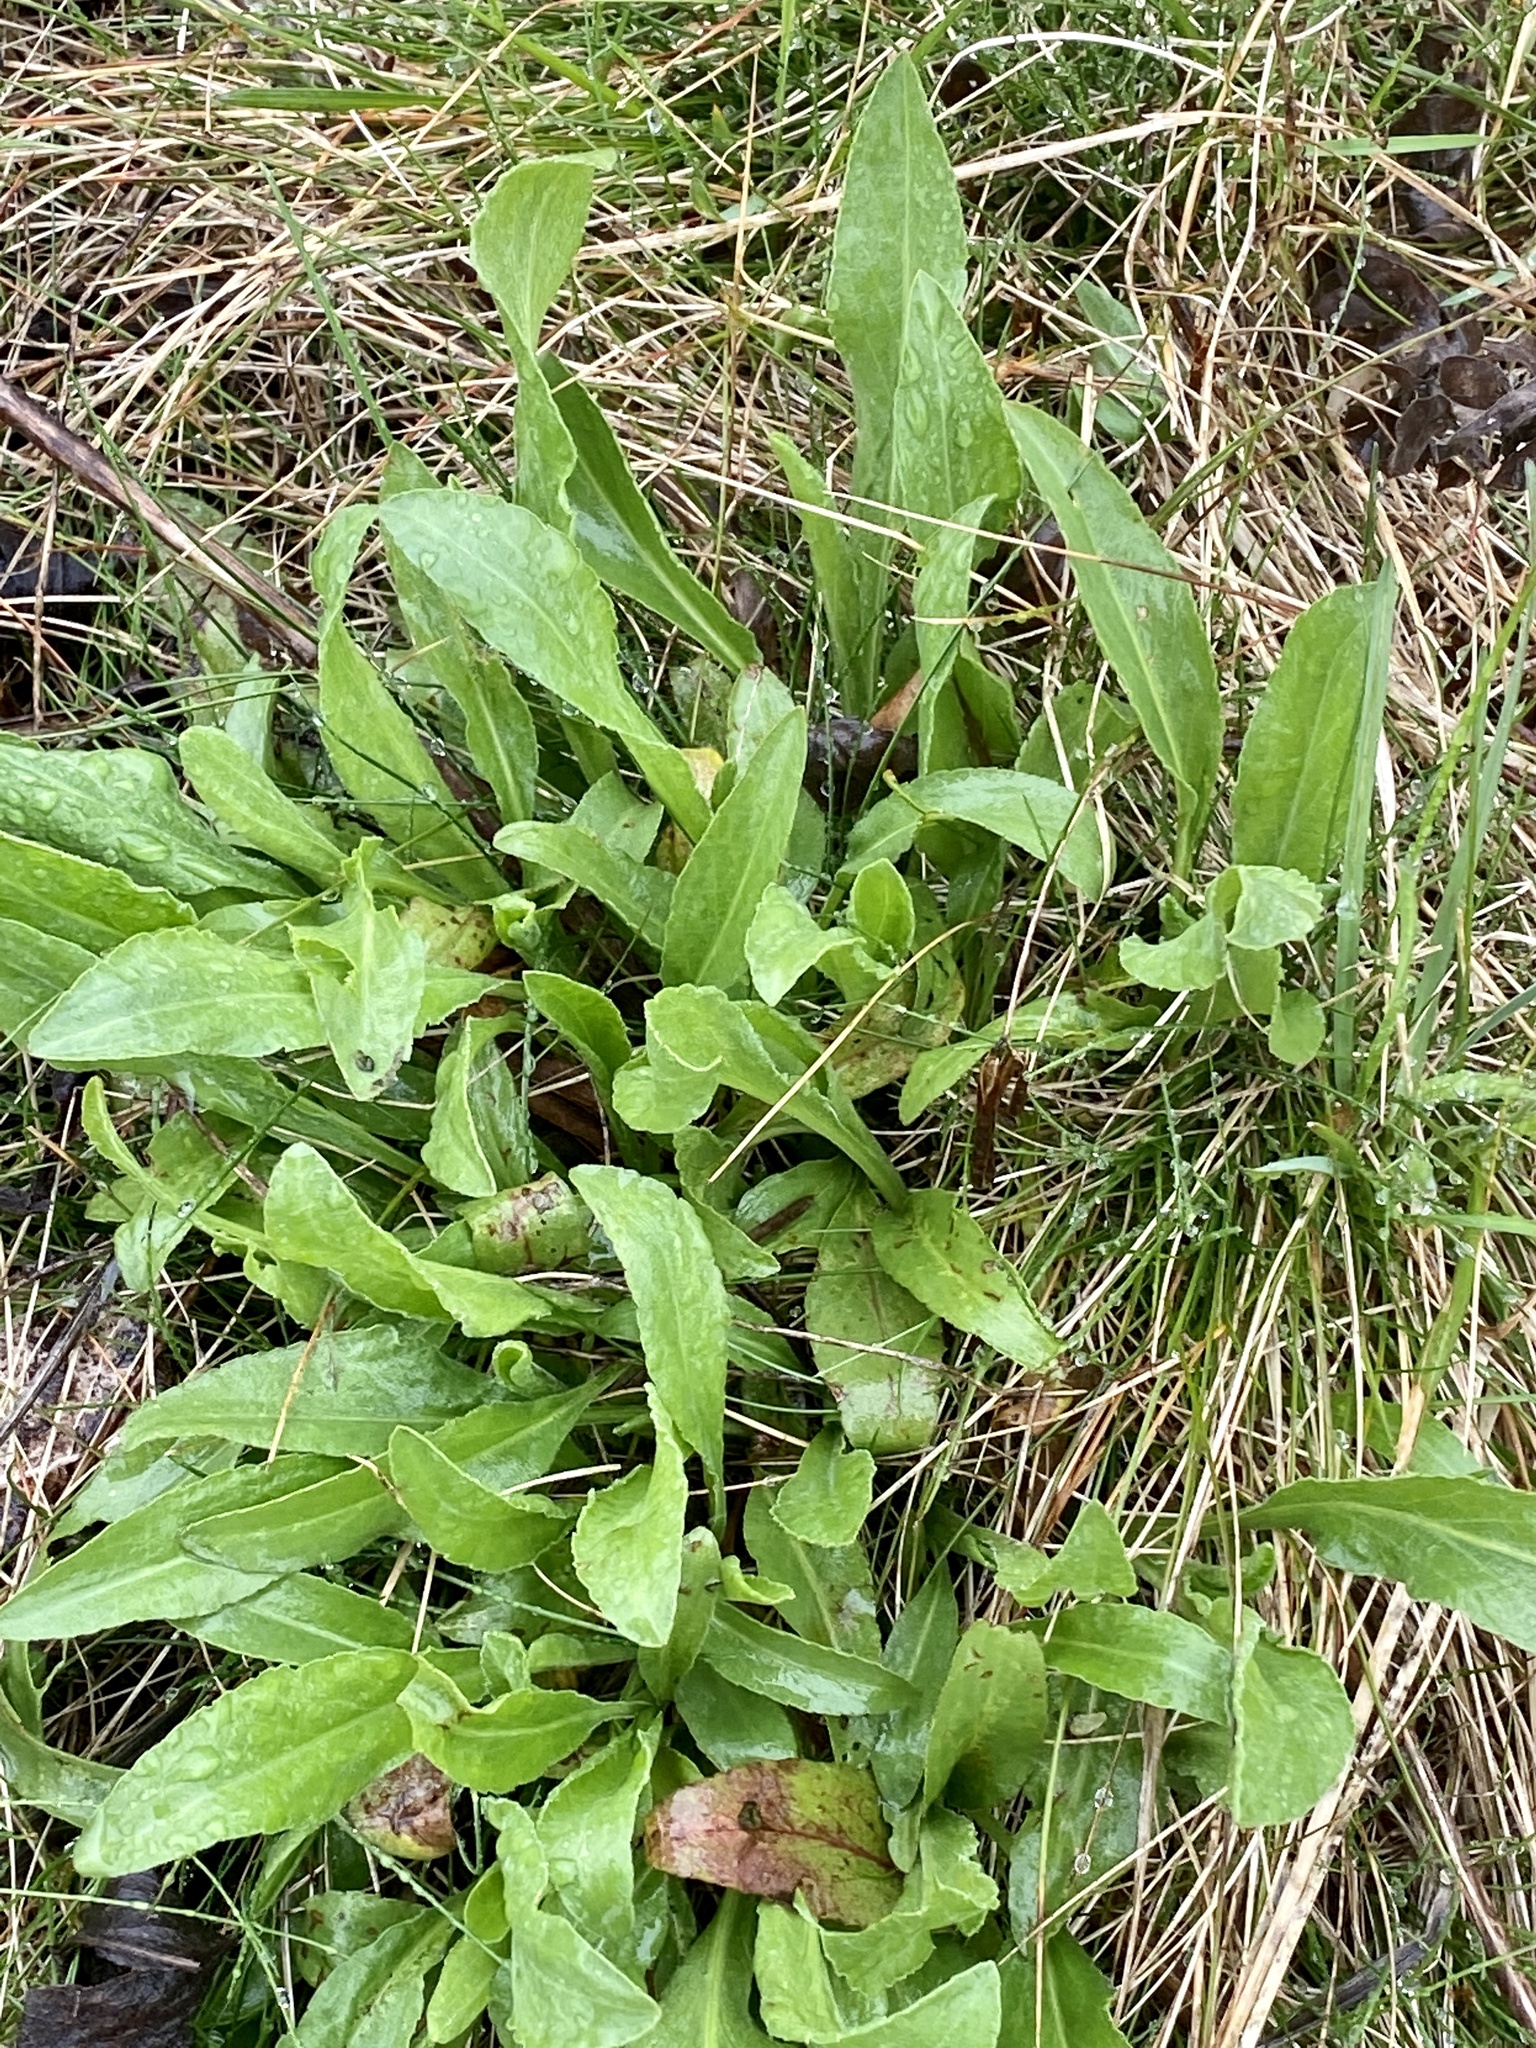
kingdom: Plantae
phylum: Tracheophyta
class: Magnoliopsida
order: Asterales
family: Asteraceae
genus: Solidago
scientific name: Solidago rigida
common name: Rigid goldenrod
